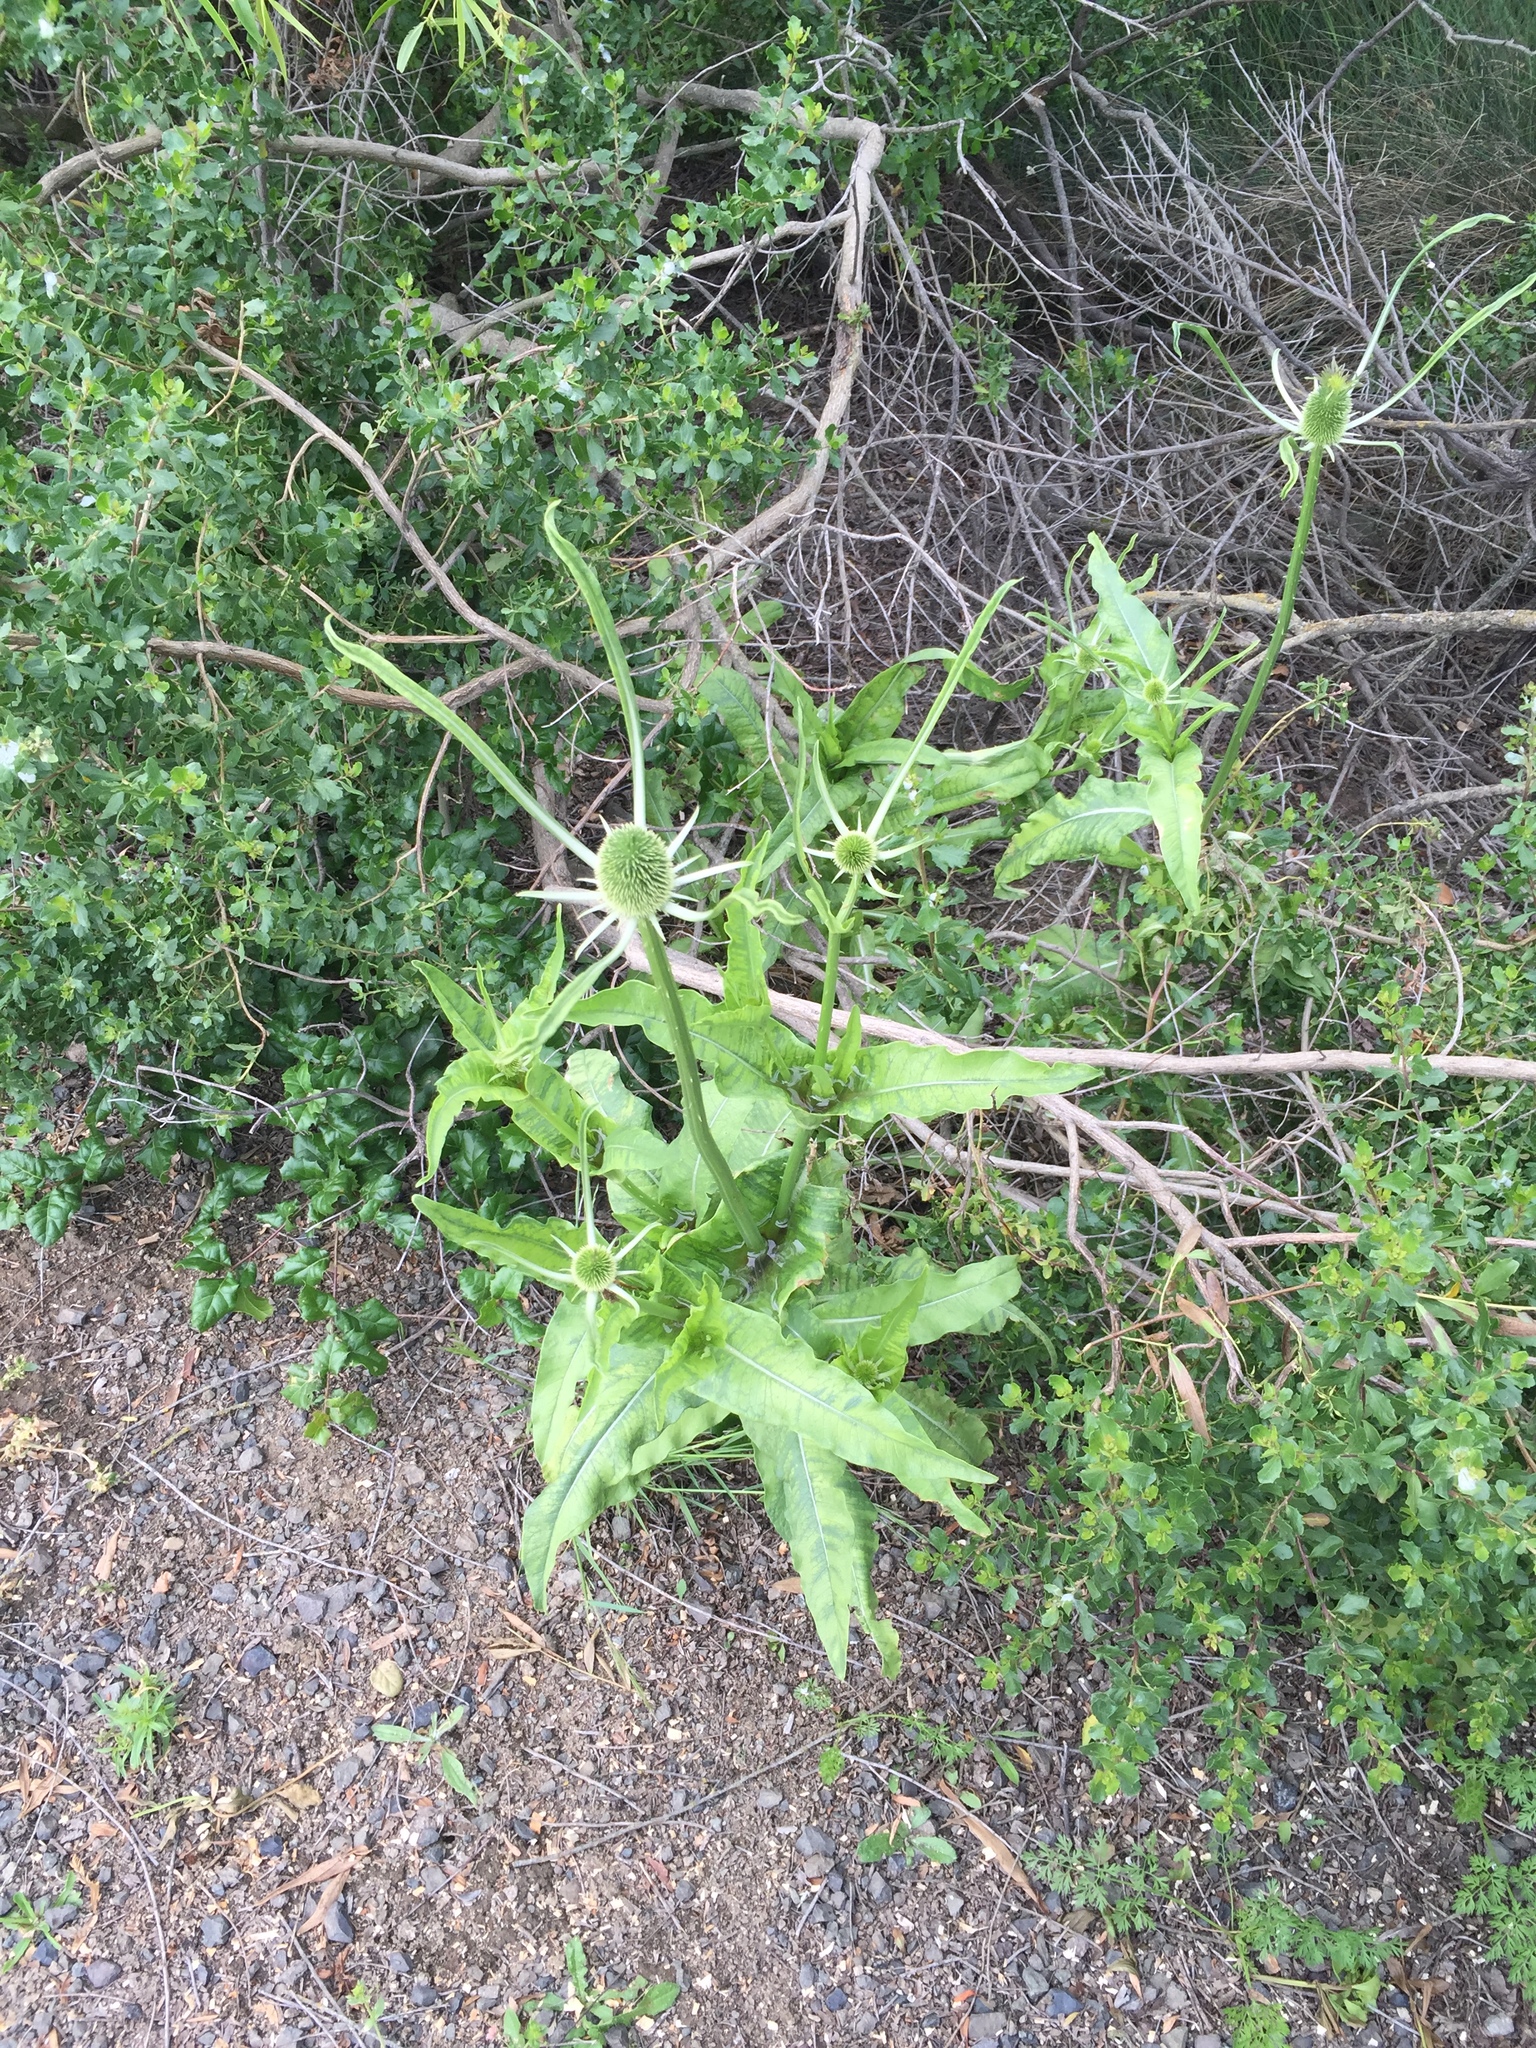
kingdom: Plantae
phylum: Tracheophyta
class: Magnoliopsida
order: Dipsacales
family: Caprifoliaceae
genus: Dipsacus
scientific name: Dipsacus sativus
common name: Fuller's teasel
